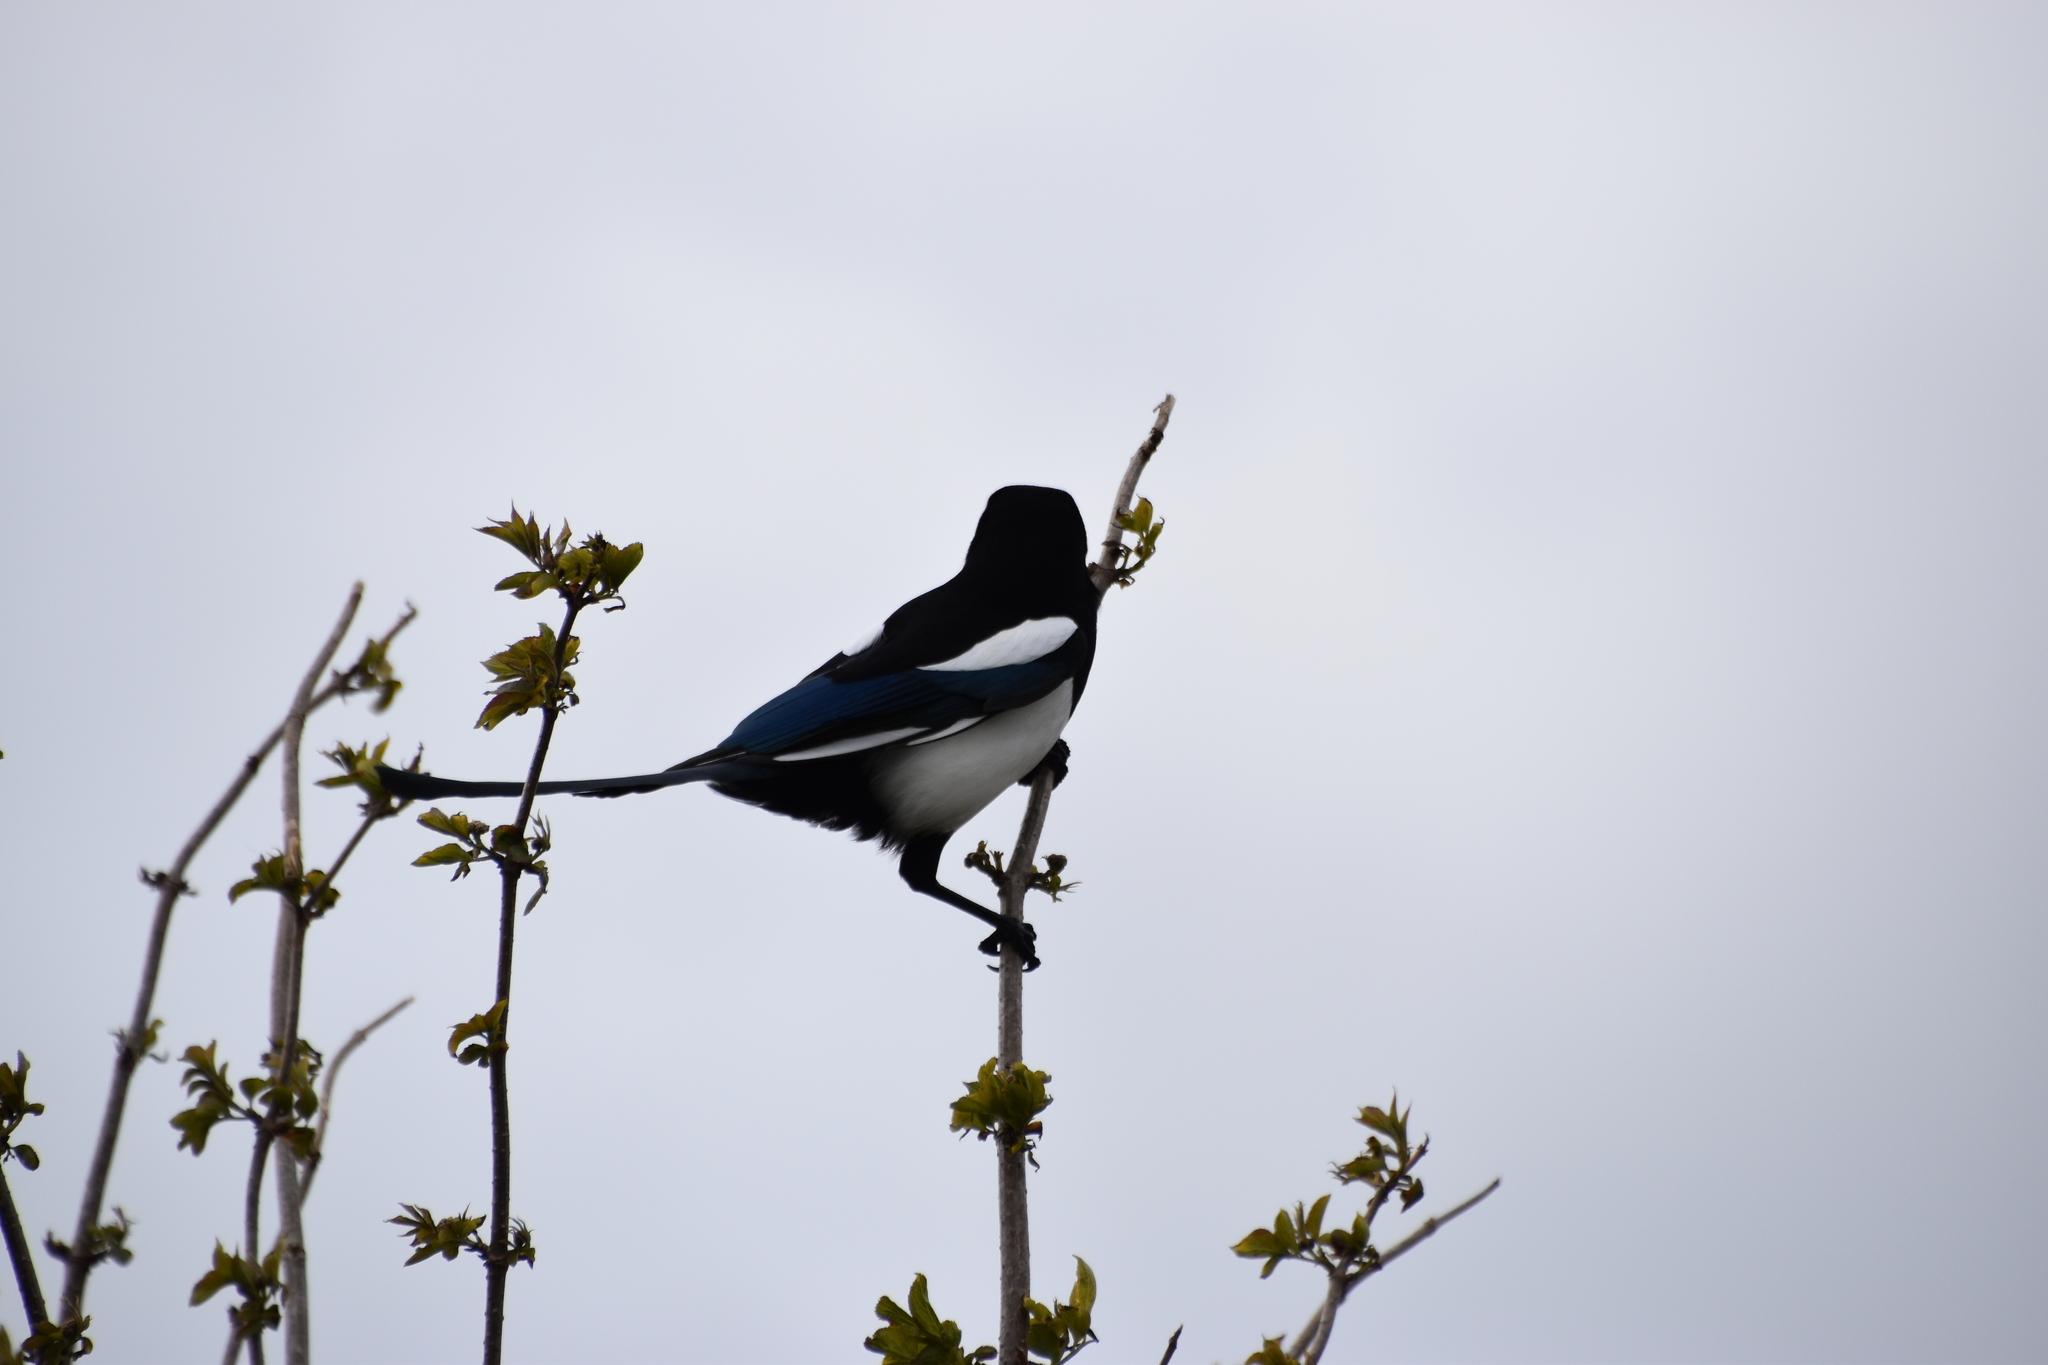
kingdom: Animalia
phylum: Chordata
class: Aves
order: Passeriformes
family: Corvidae
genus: Pica
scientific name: Pica pica
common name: Eurasian magpie
